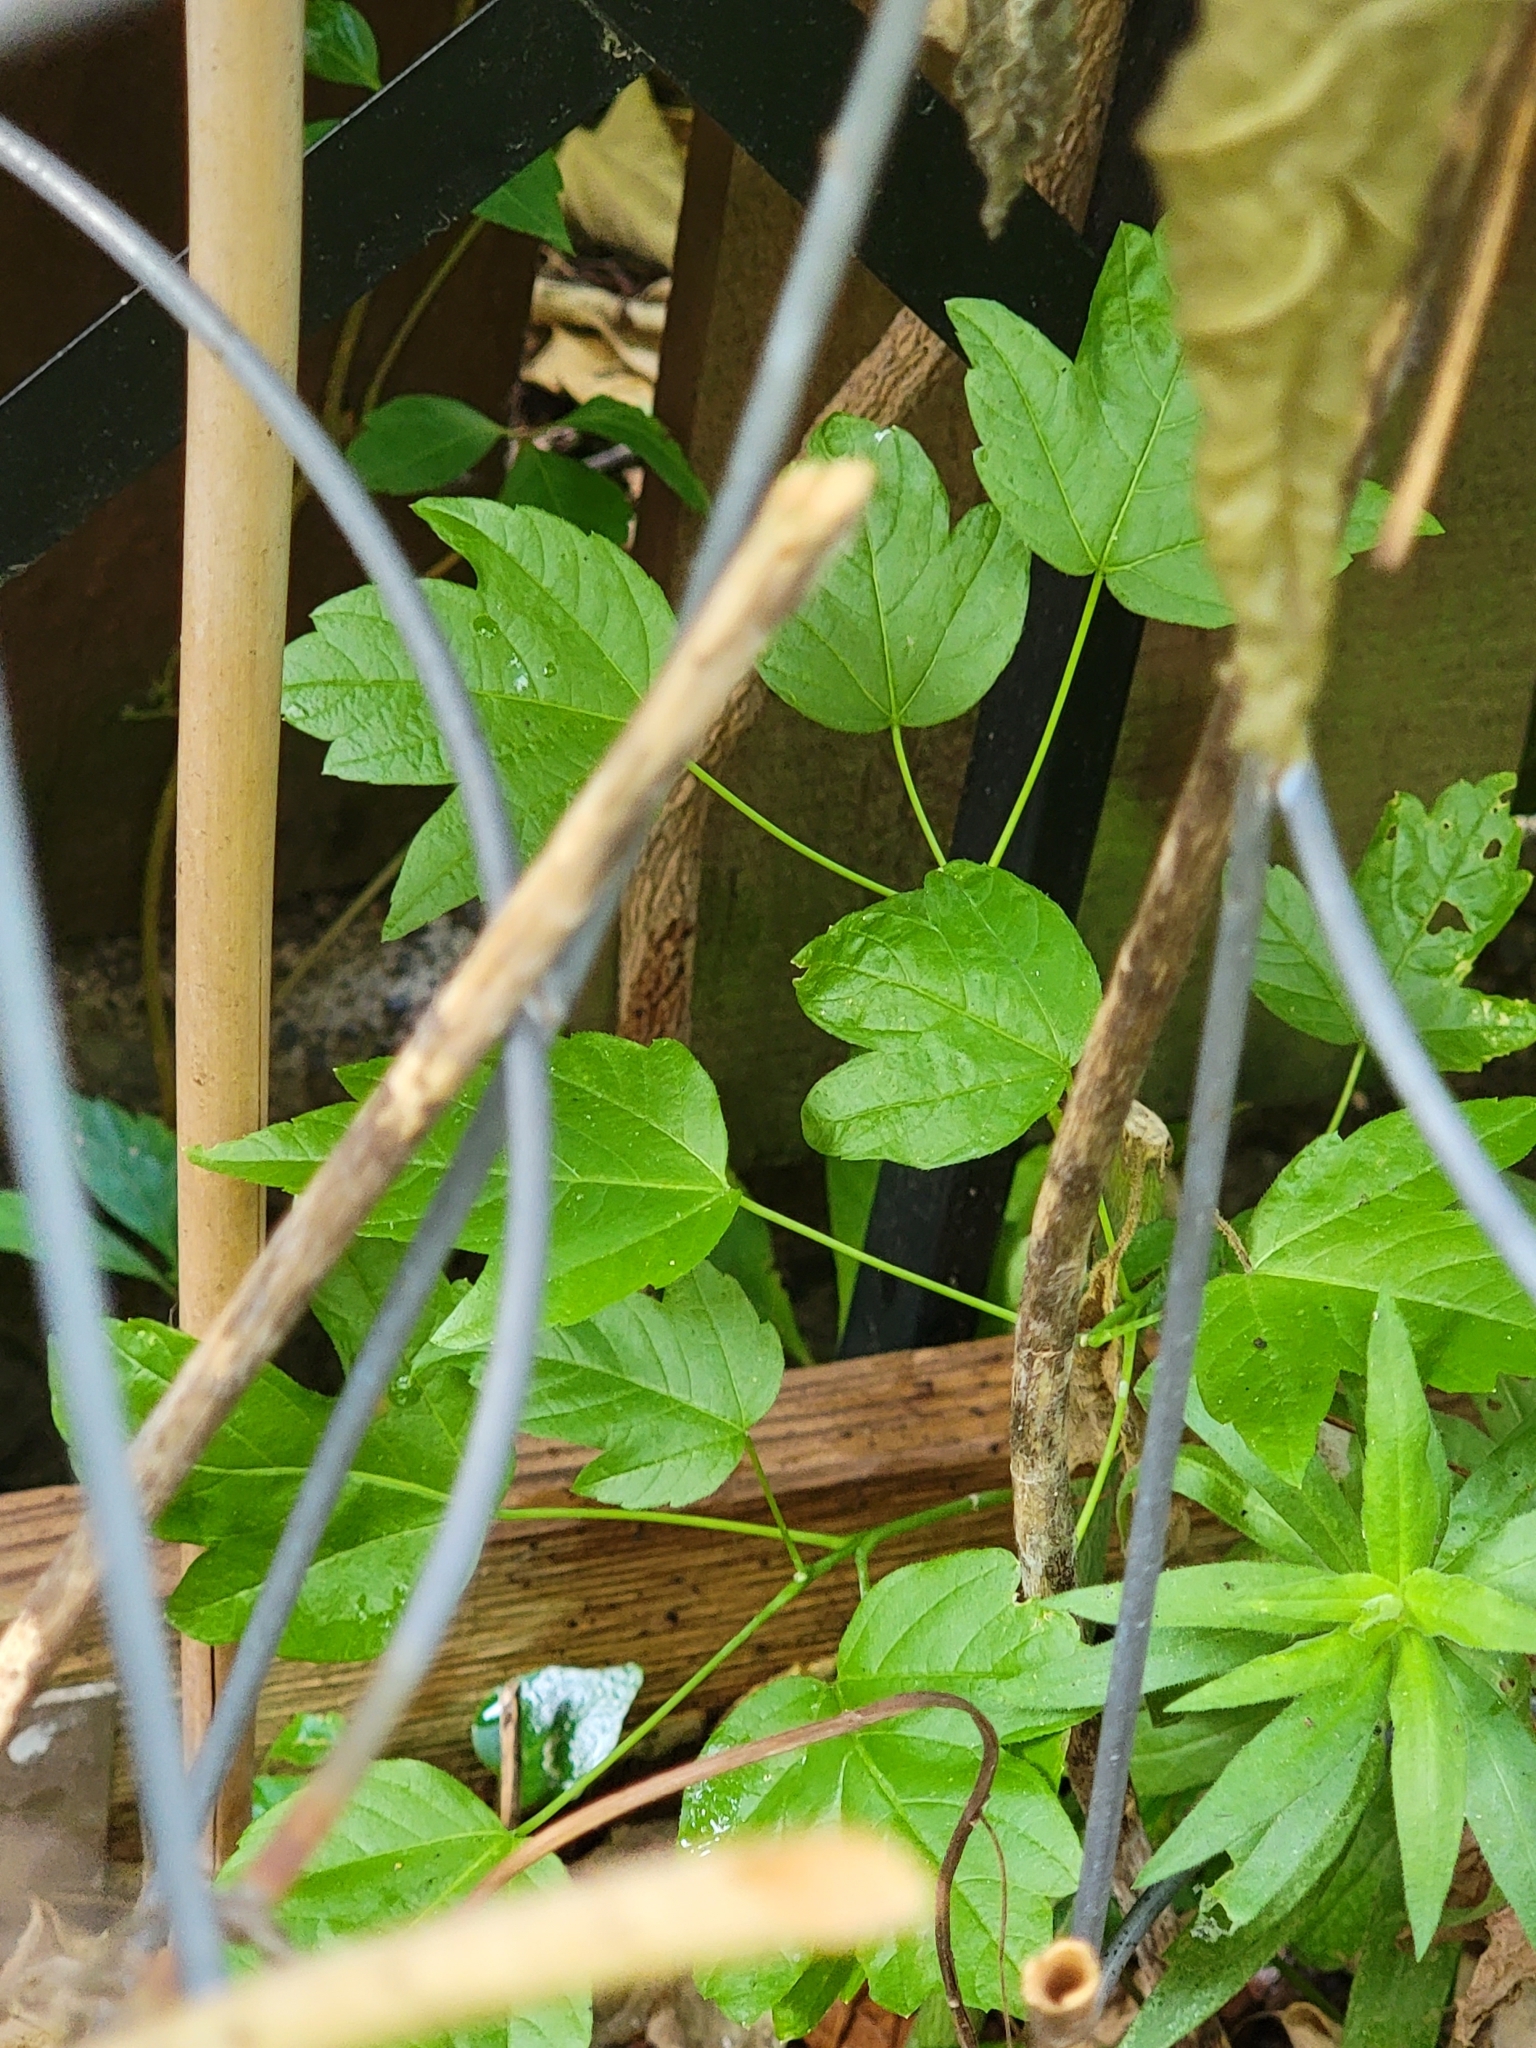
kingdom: Plantae
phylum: Tracheophyta
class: Magnoliopsida
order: Sapindales
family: Sapindaceae
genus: Acer
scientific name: Acer negundo
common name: Ashleaf maple
